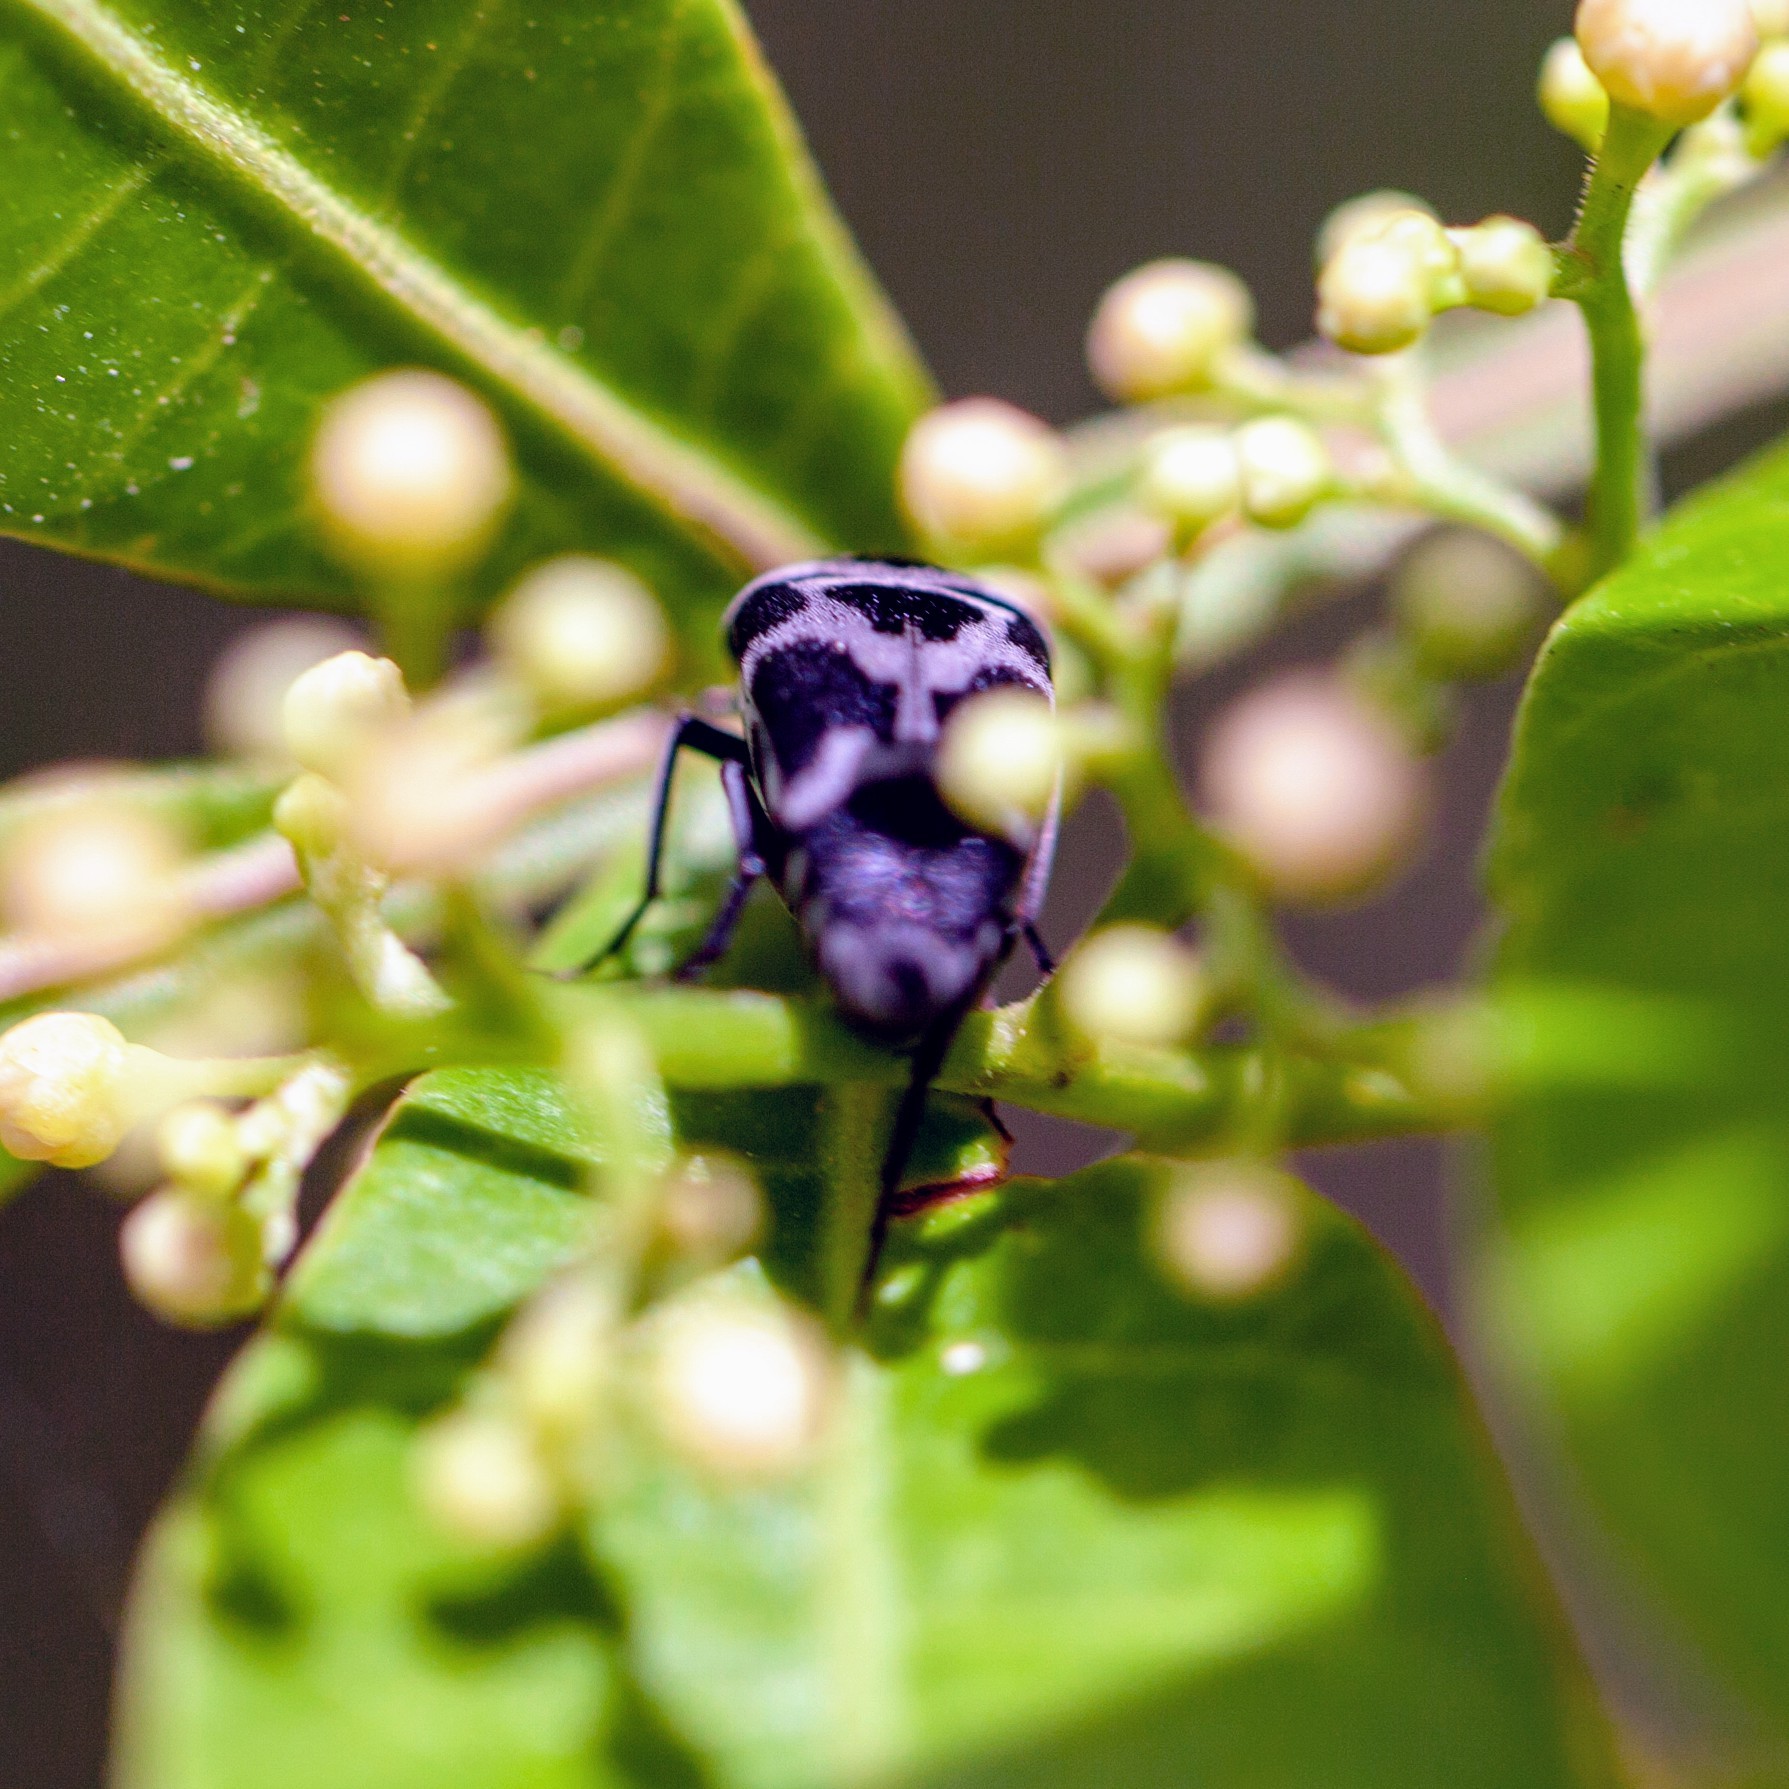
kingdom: Animalia
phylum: Arthropoda
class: Insecta
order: Coleoptera
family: Mordellidae
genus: Mordella
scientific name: Mordella knulli
